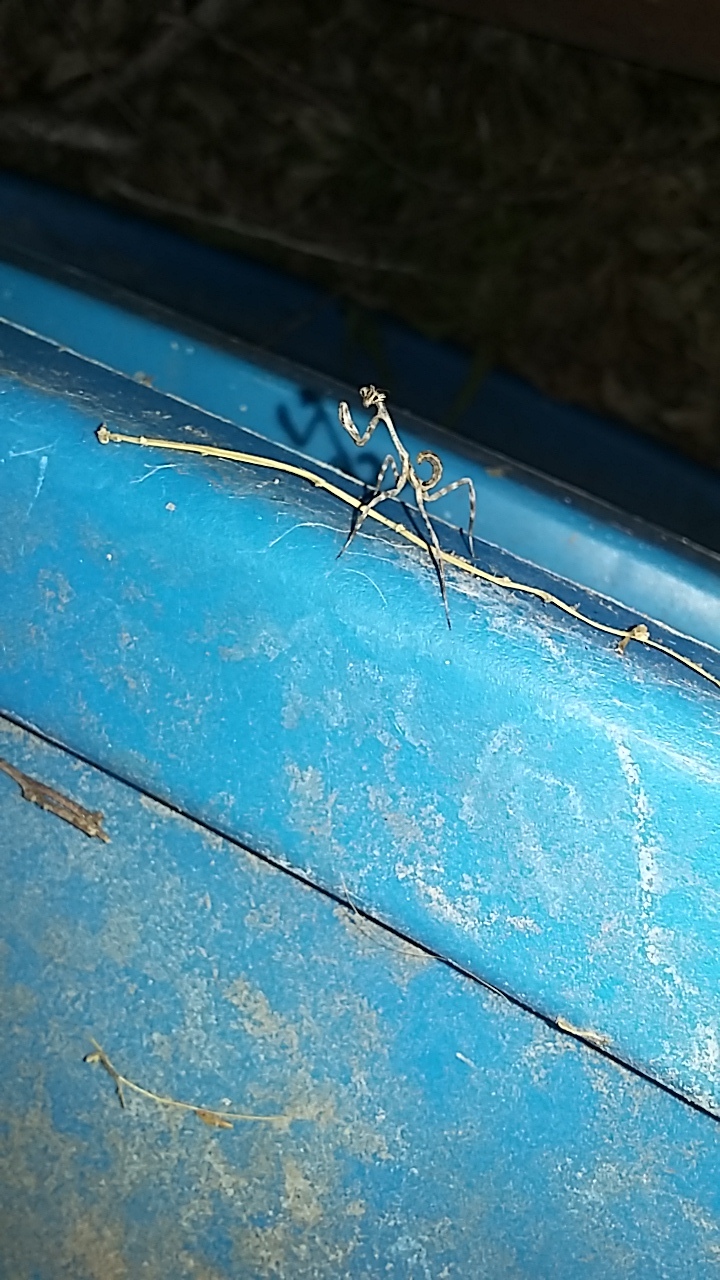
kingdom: Animalia
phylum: Arthropoda
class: Insecta
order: Mantodea
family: Mantidae
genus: Pseudovates
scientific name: Pseudovates chlorophaea
